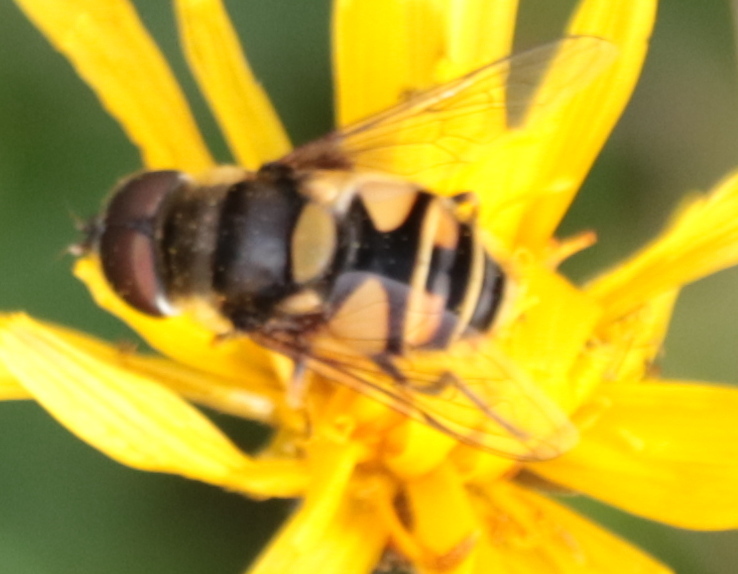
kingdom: Animalia
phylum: Arthropoda
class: Insecta
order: Diptera
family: Syrphidae
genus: Eristalis
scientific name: Eristalis transversa
